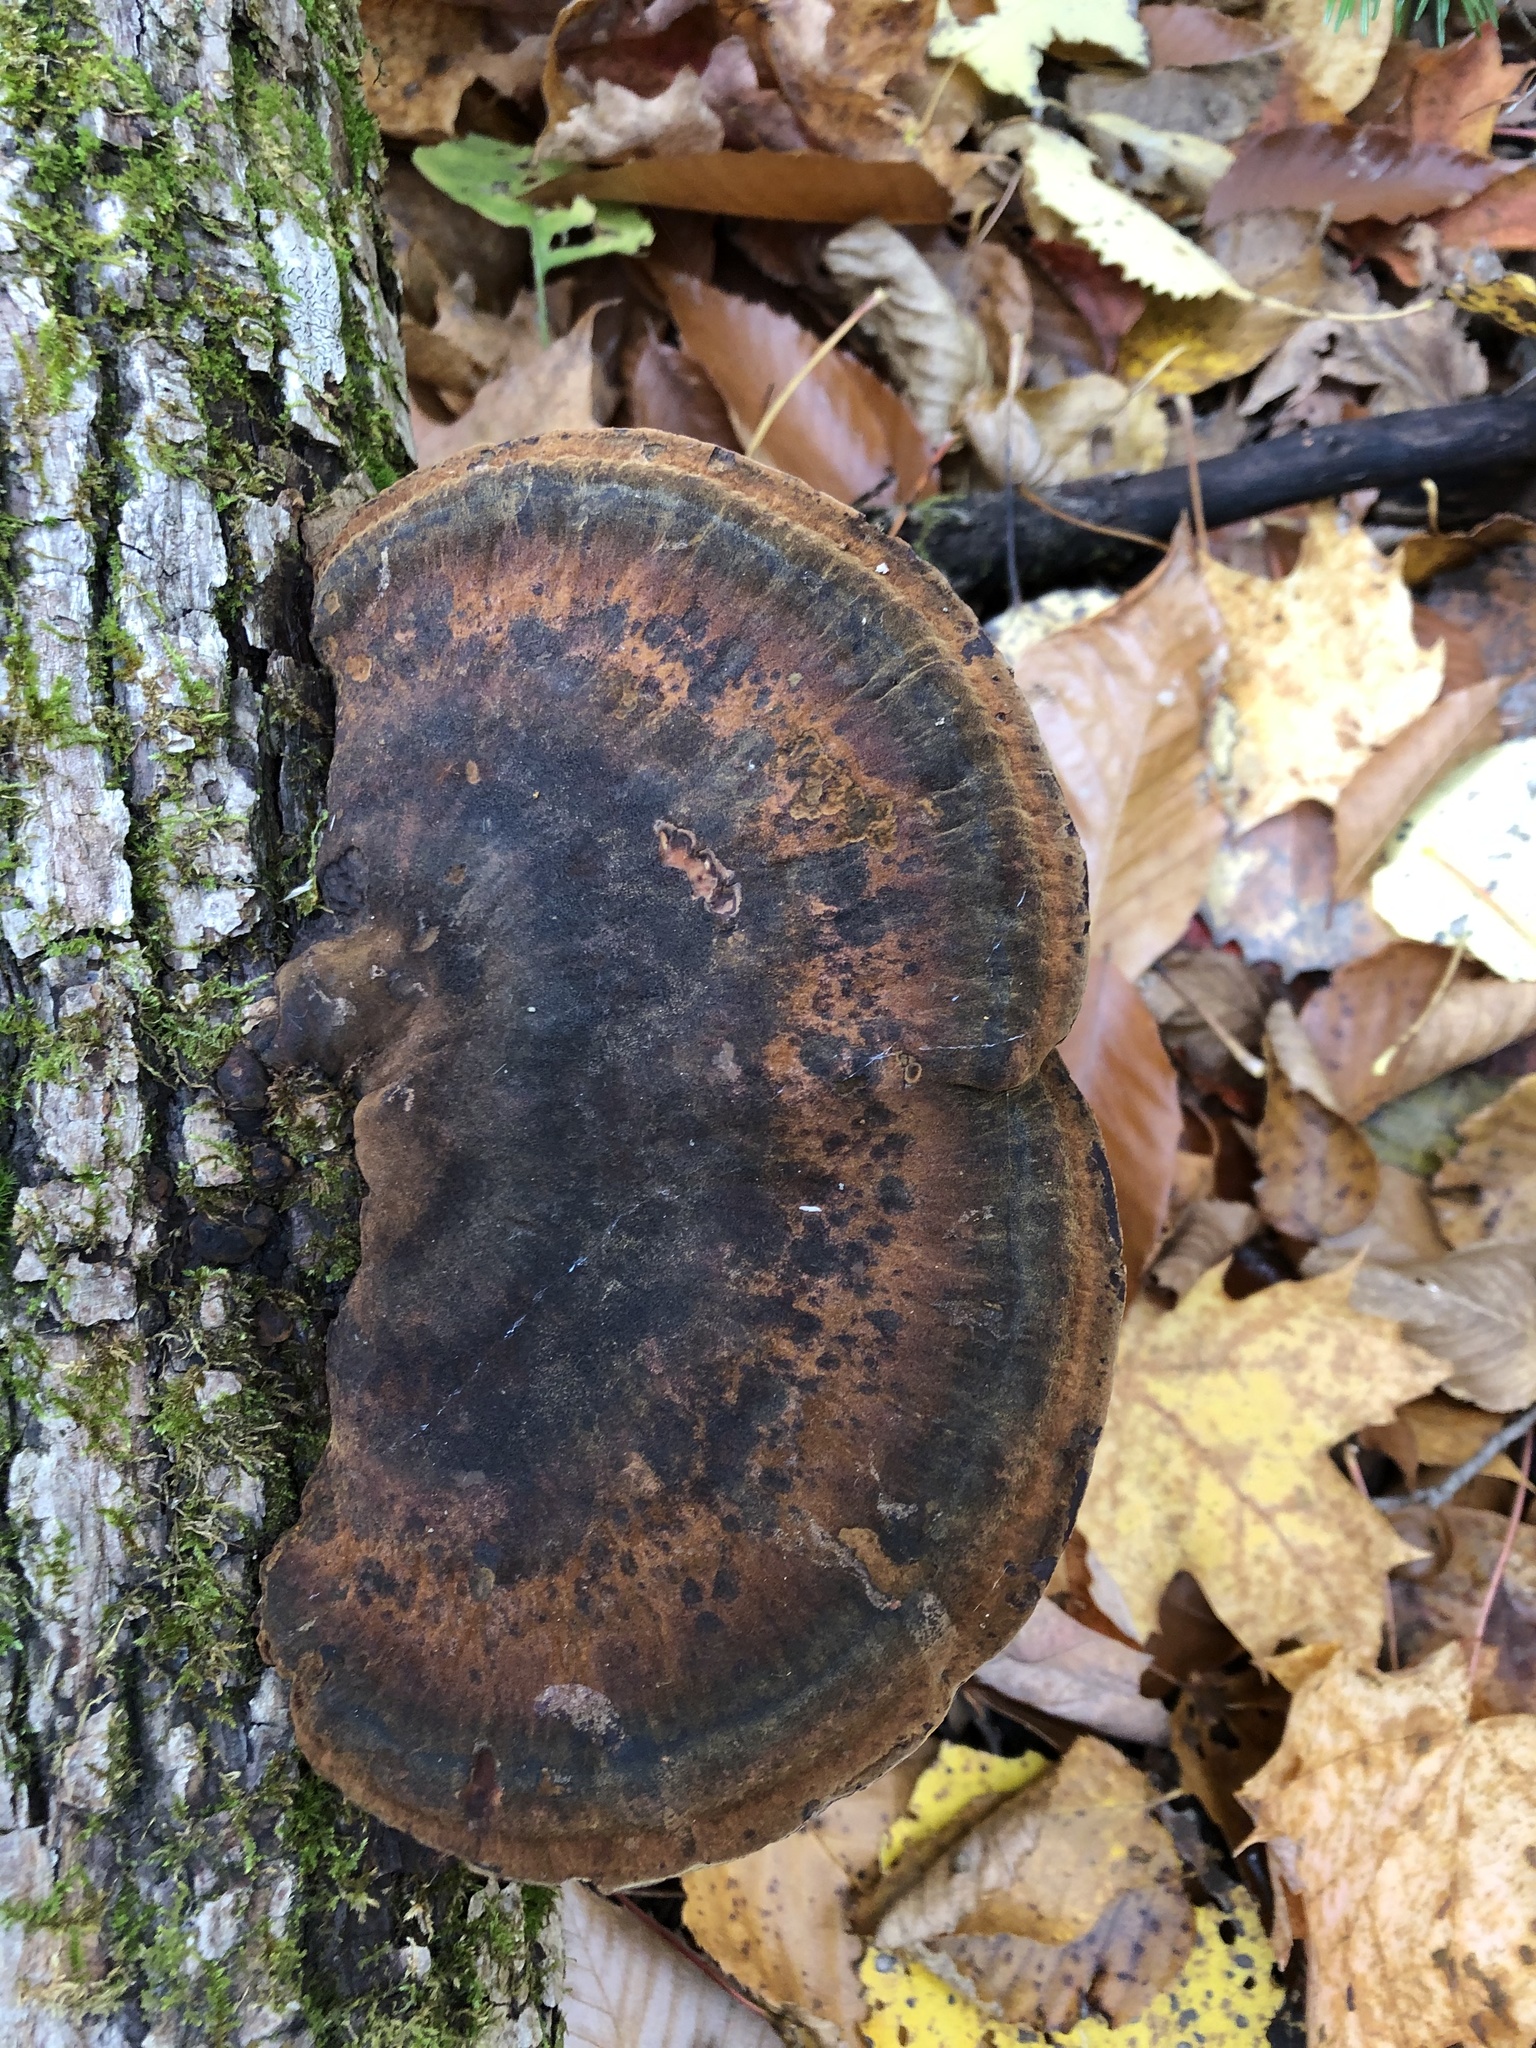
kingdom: Fungi
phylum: Basidiomycota
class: Agaricomycetes
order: Polyporales
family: Ischnodermataceae
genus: Ischnoderma
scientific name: Ischnoderma resinosum
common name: Resinous polypore
